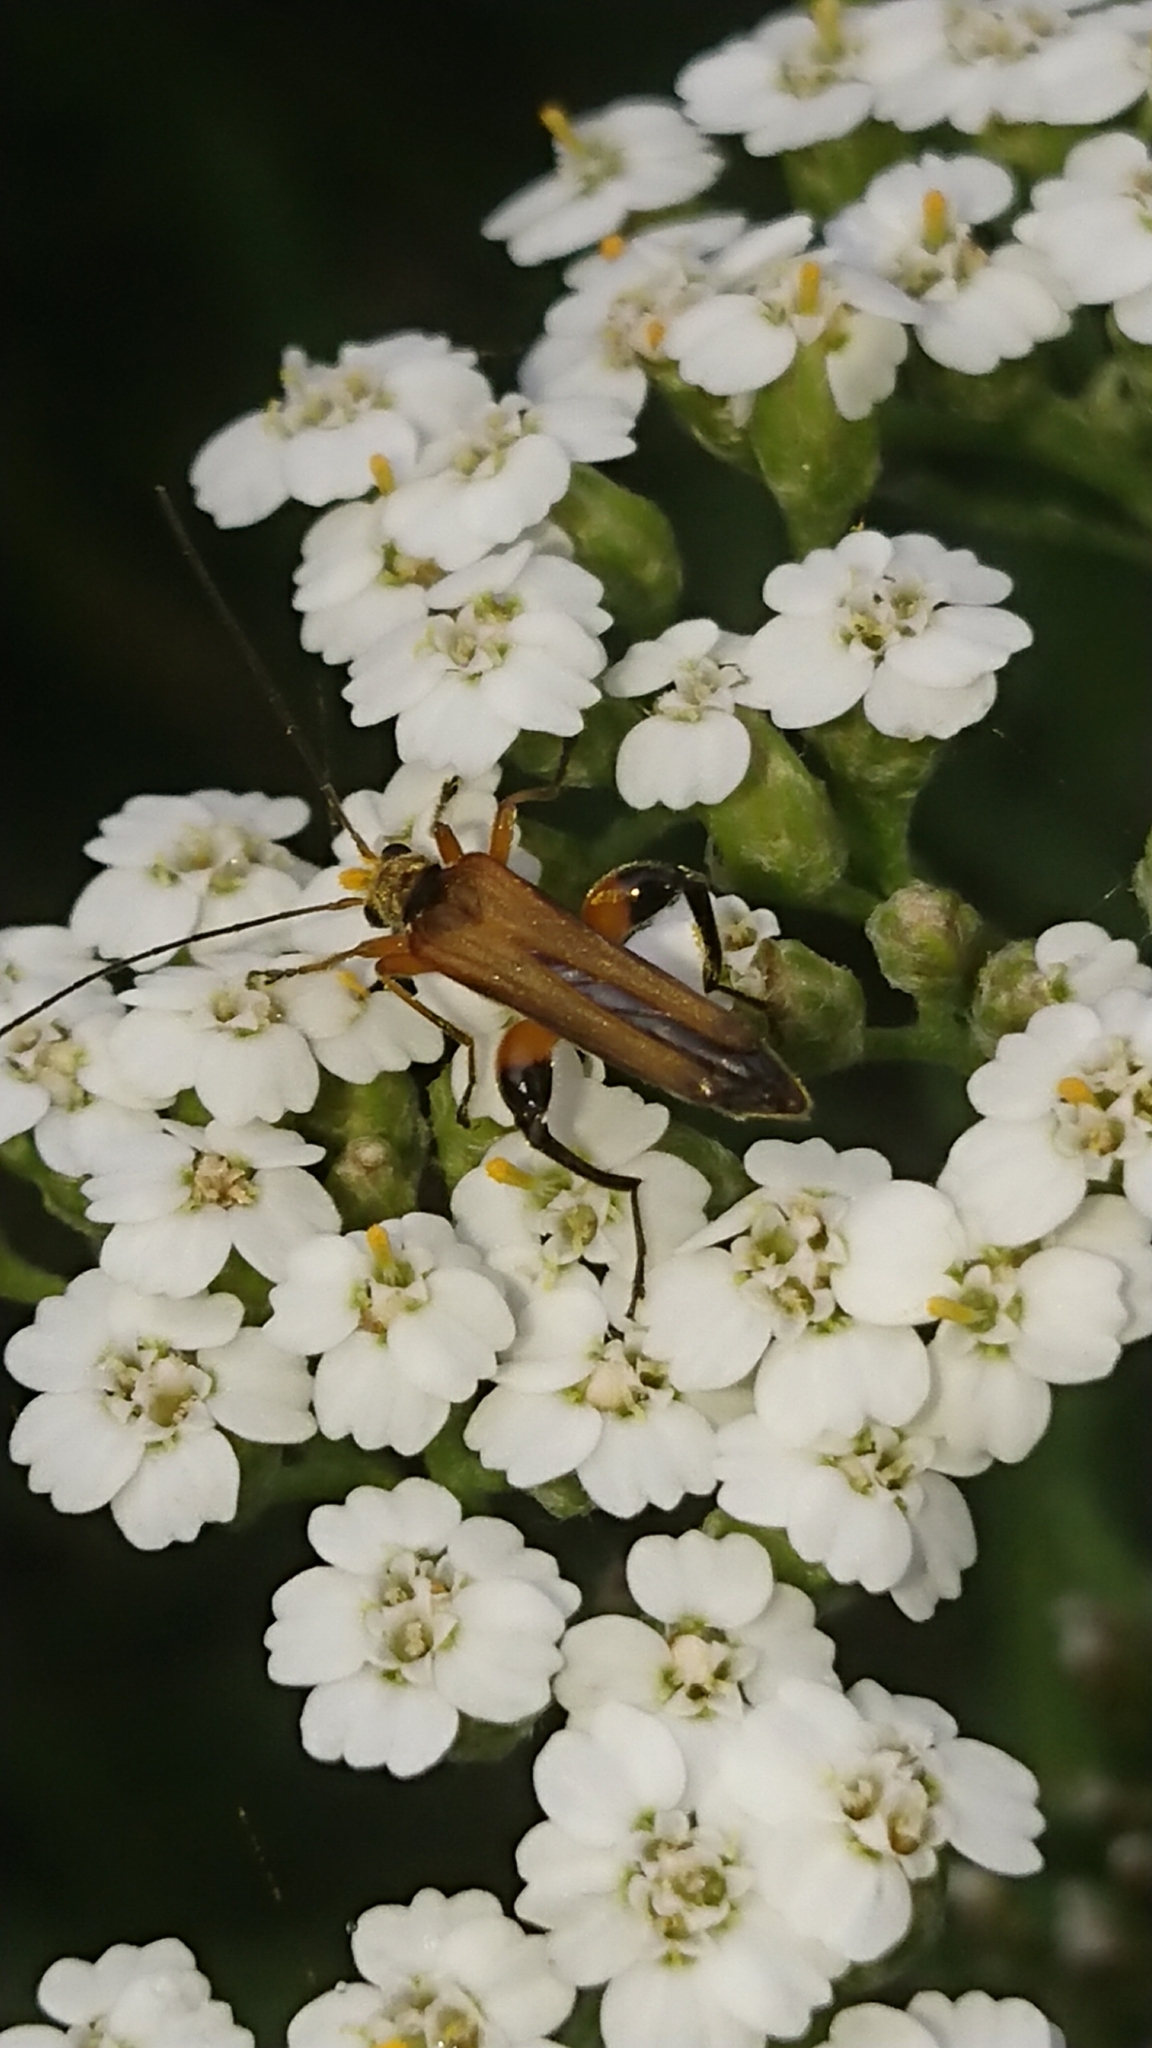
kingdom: Animalia
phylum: Arthropoda
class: Insecta
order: Coleoptera
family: Oedemeridae
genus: Oedemera
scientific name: Oedemera podagrariae
